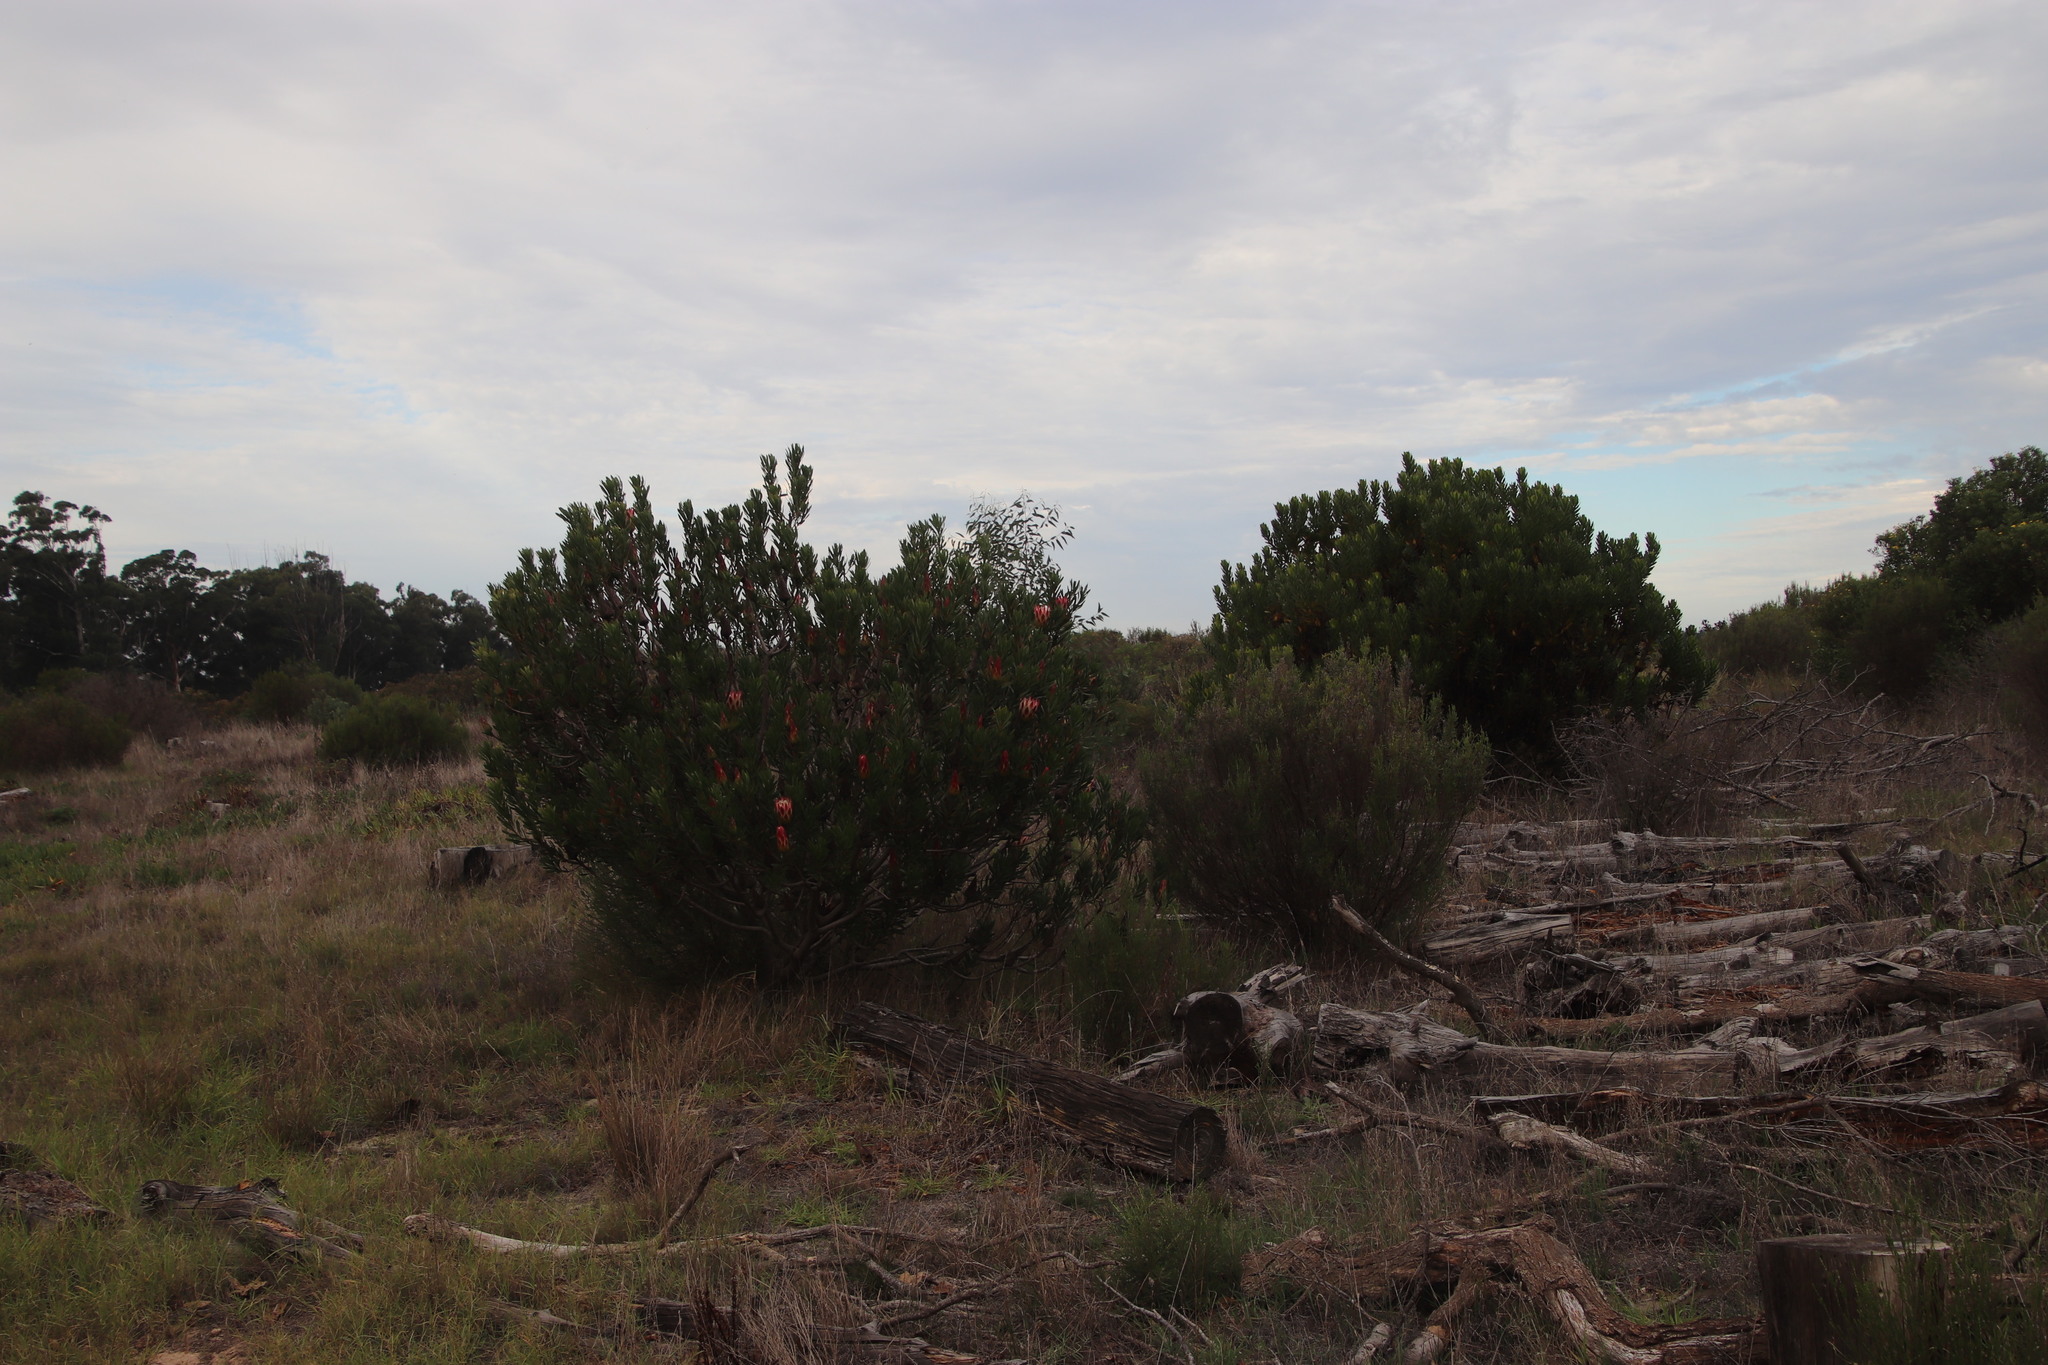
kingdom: Plantae
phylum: Tracheophyta
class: Magnoliopsida
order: Proteales
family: Proteaceae
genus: Protea
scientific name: Protea repens
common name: Sugarbush
